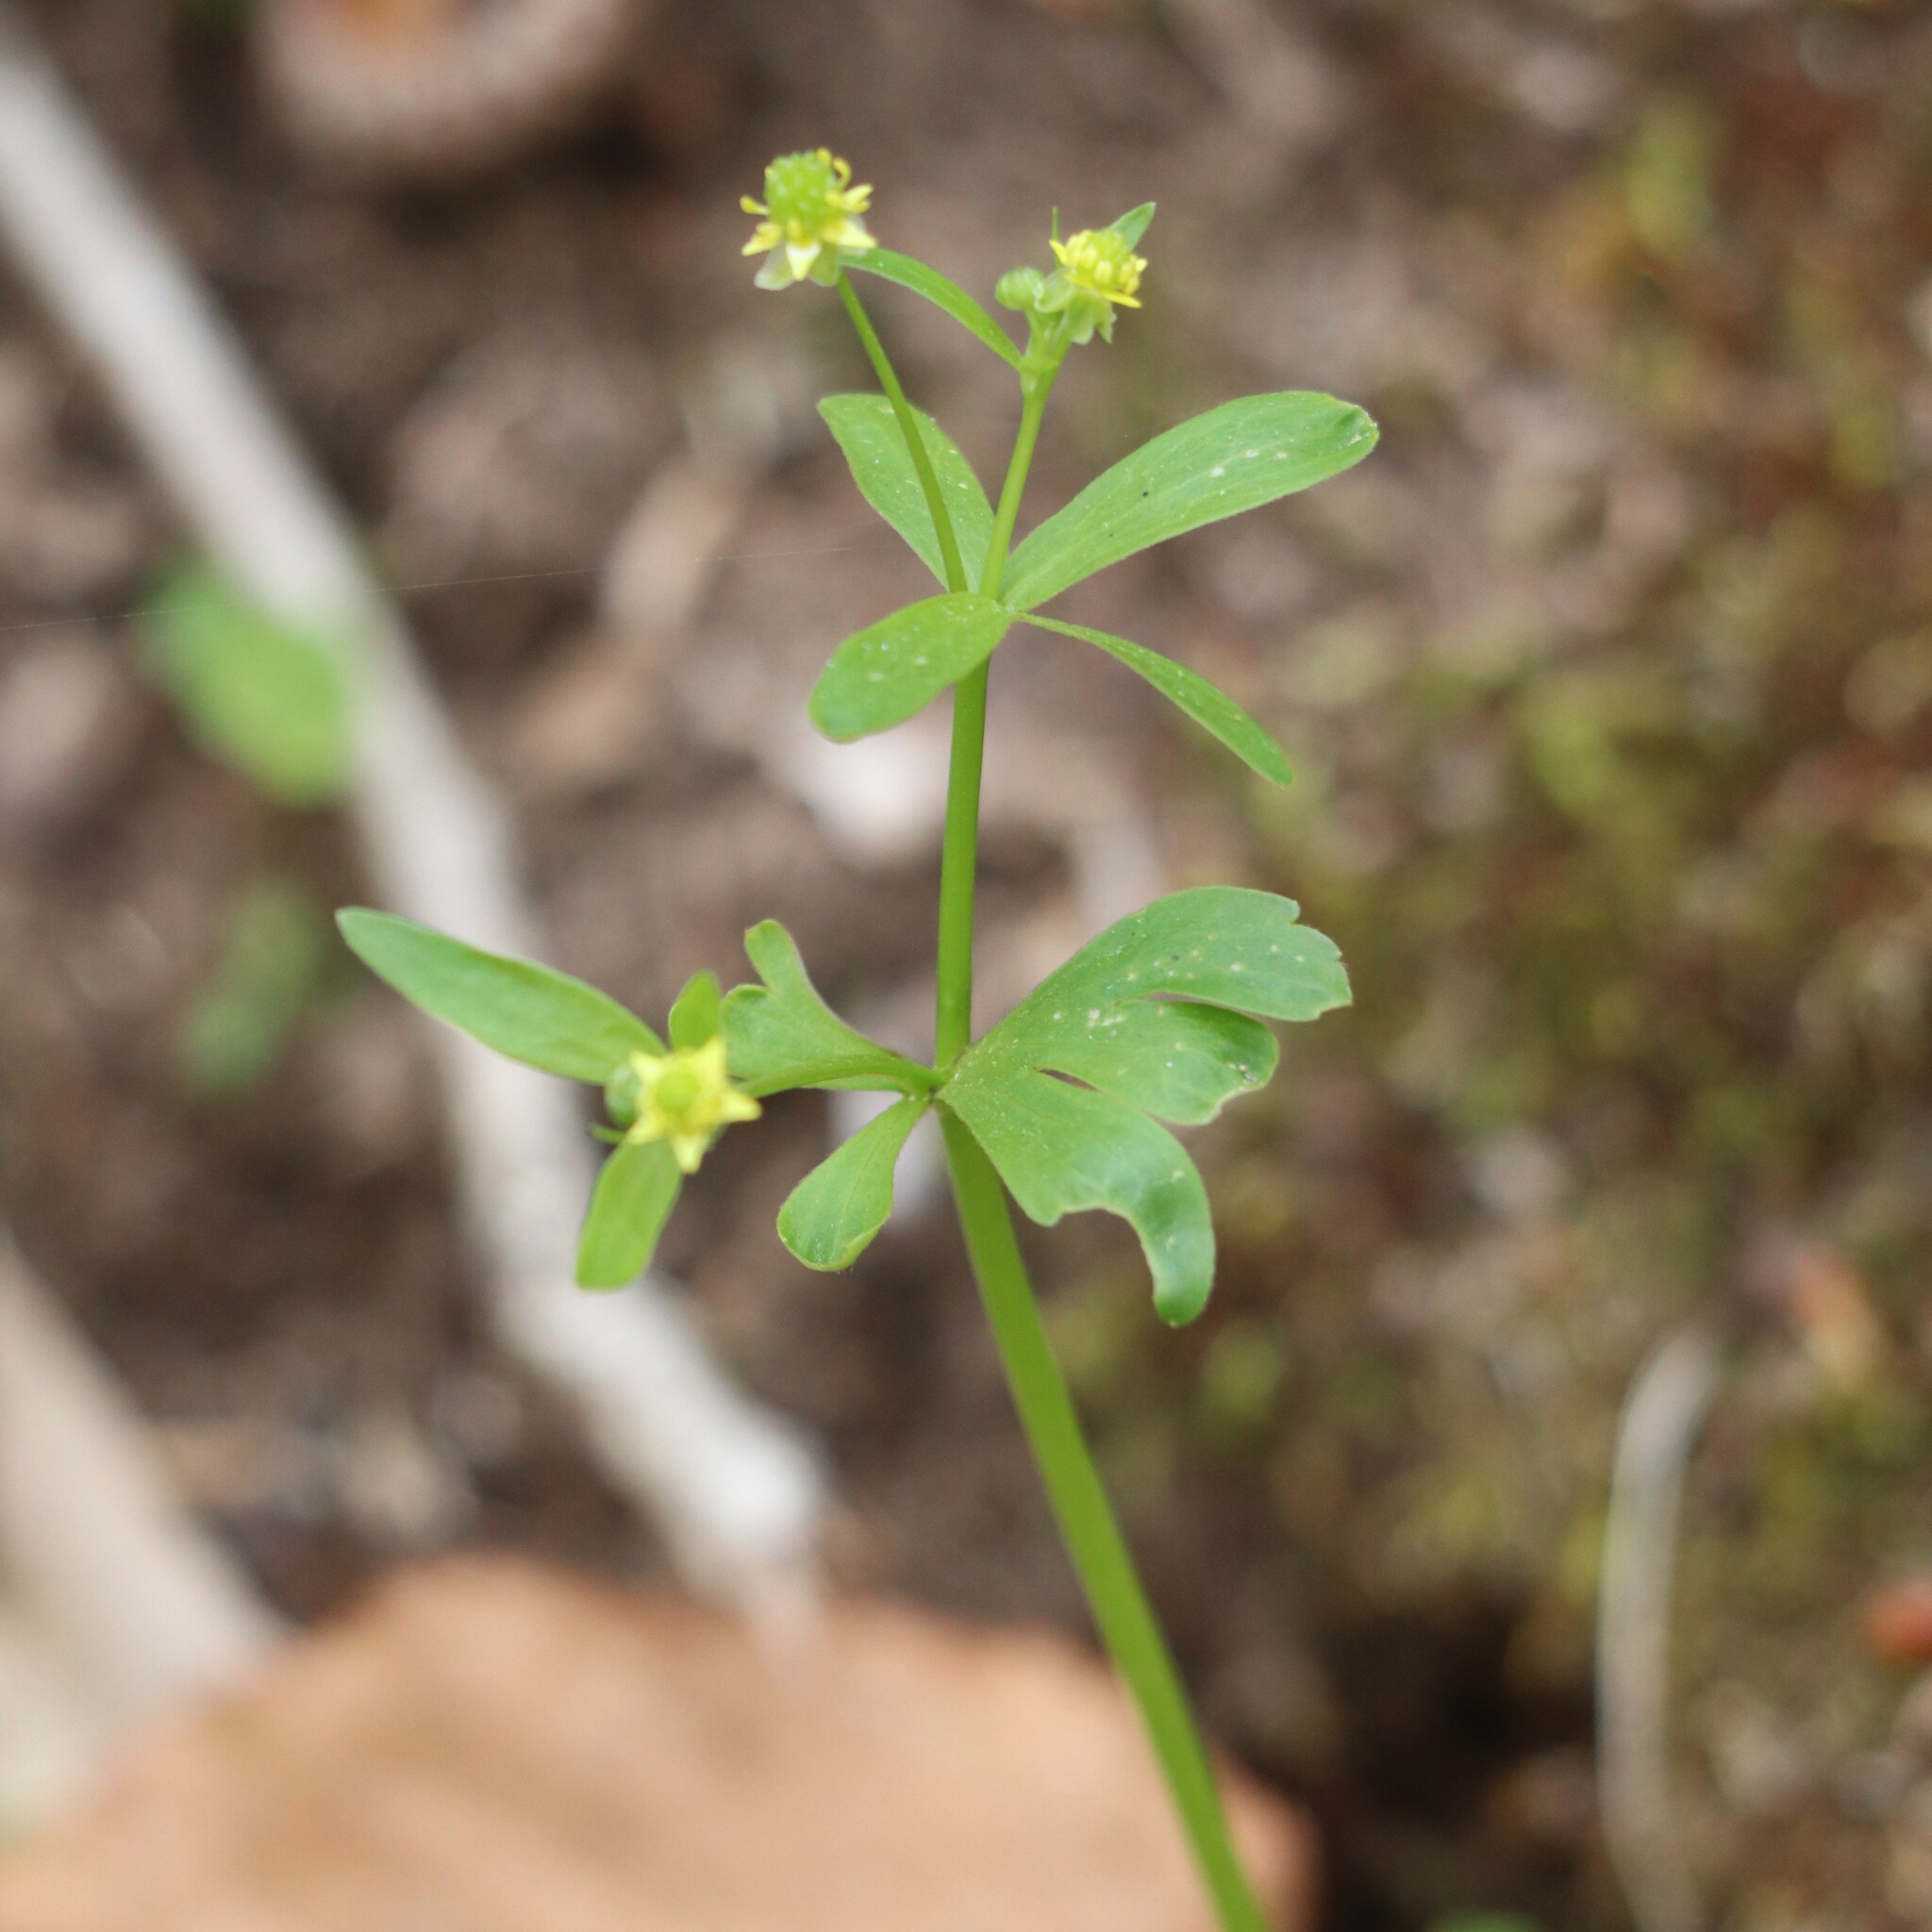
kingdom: Plantae
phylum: Tracheophyta
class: Magnoliopsida
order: Ranunculales
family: Ranunculaceae
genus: Ranunculus
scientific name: Ranunculus abortivus
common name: Early wood buttercup
